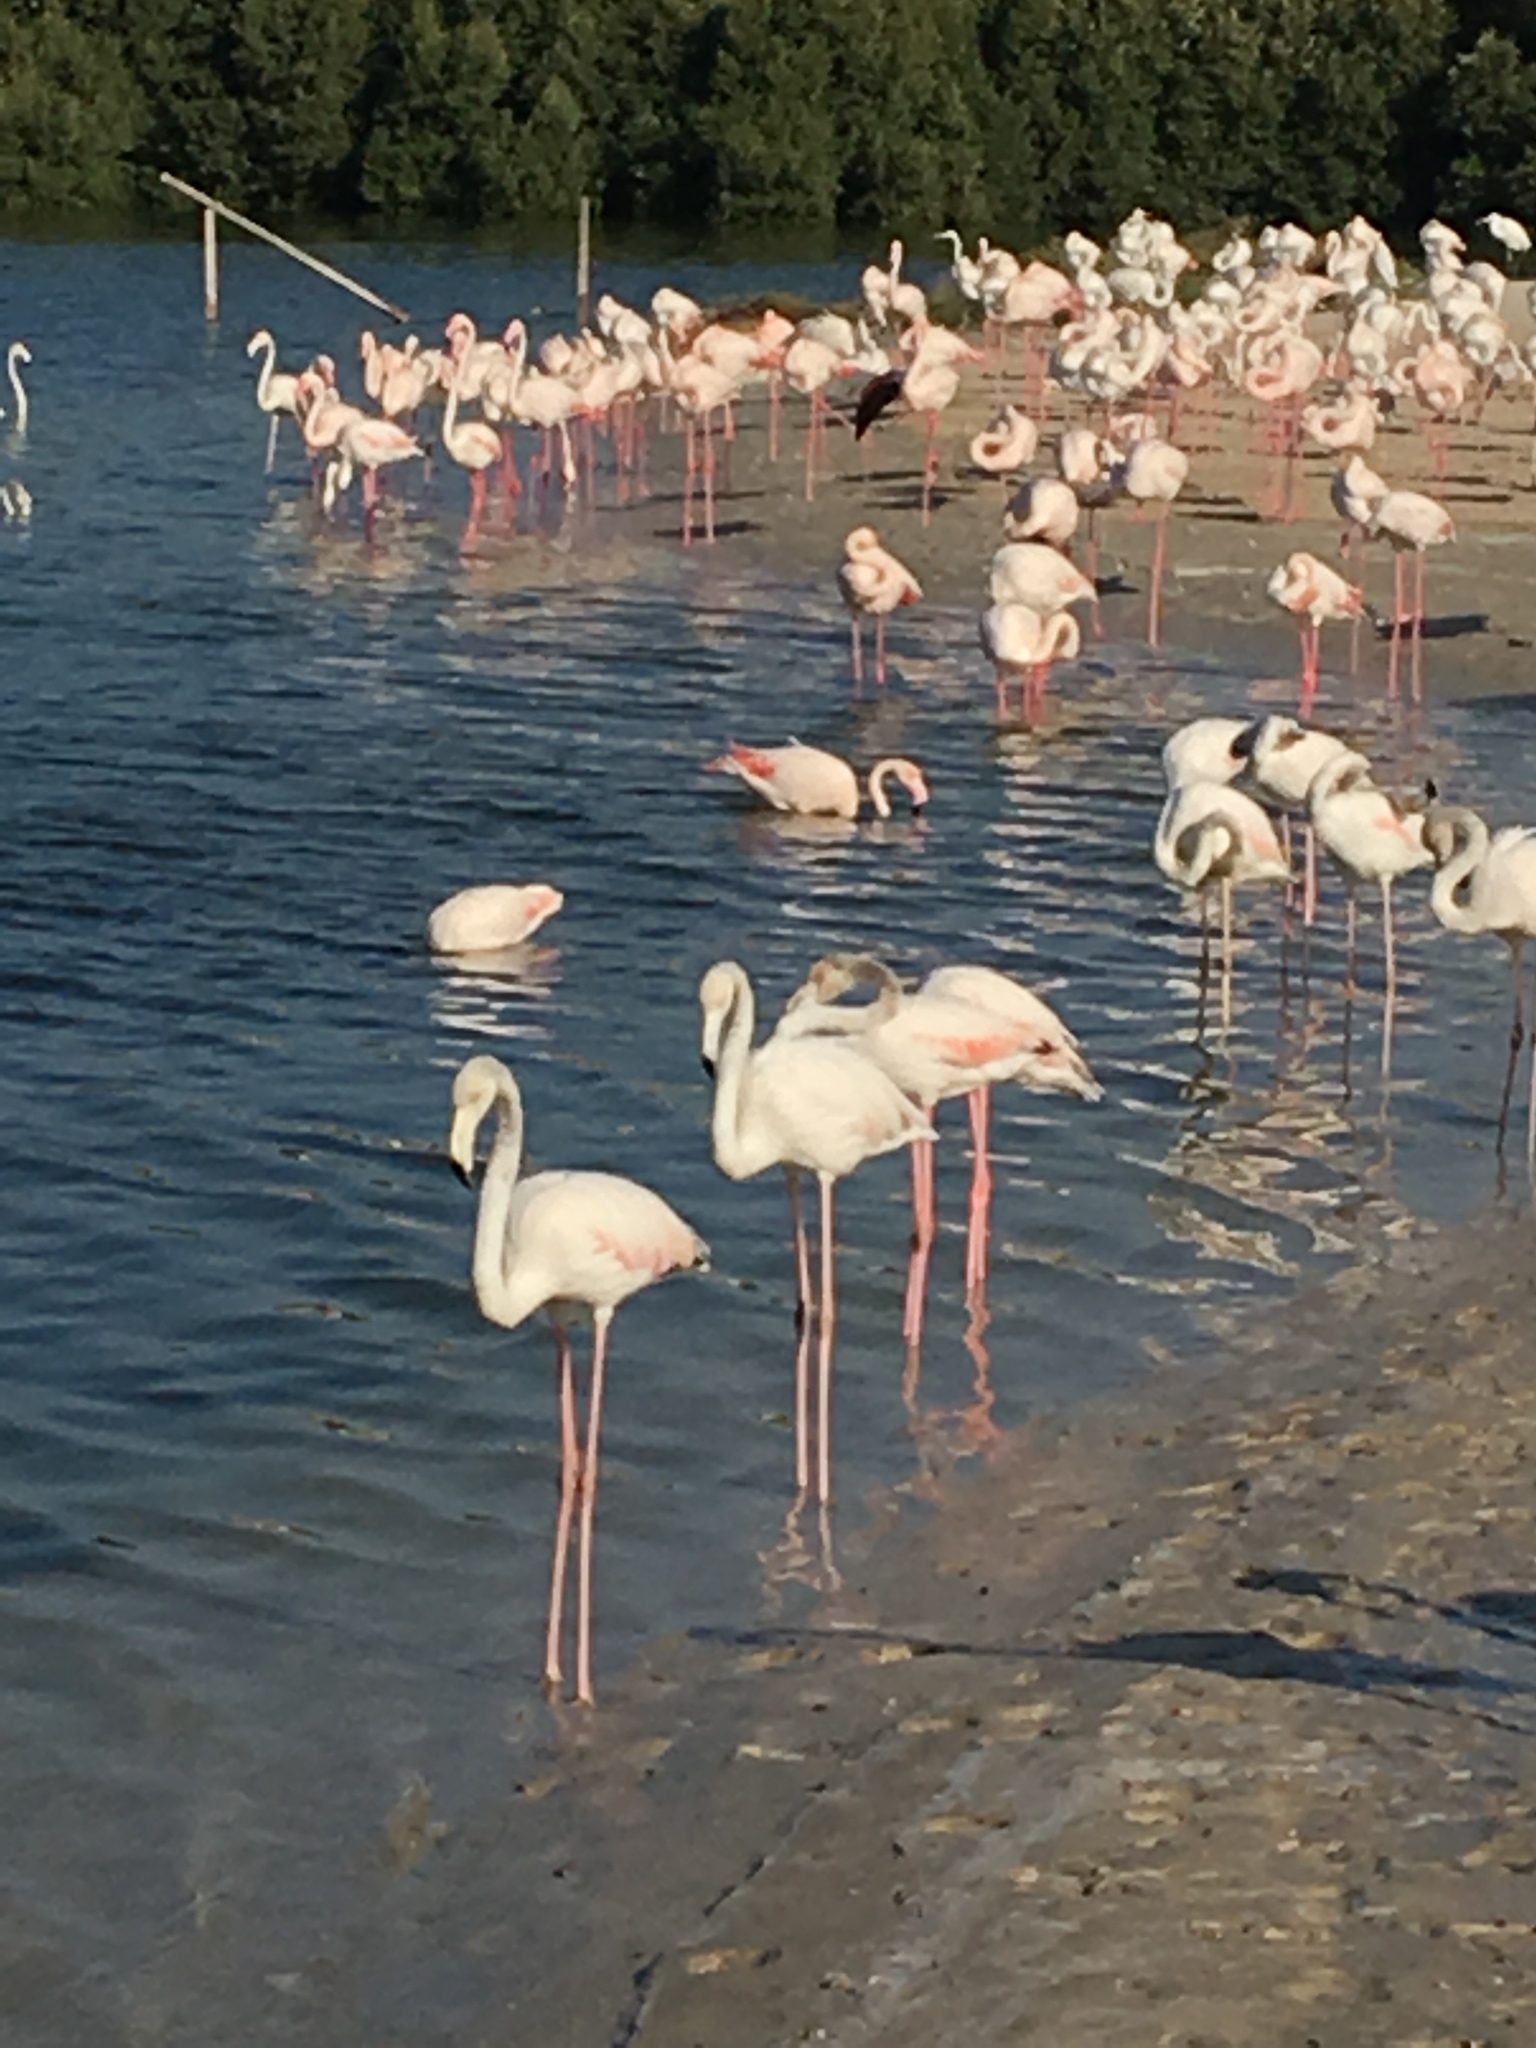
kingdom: Animalia
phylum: Chordata
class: Aves
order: Phoenicopteriformes
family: Phoenicopteridae
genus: Phoenicopterus
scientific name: Phoenicopterus roseus
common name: Greater flamingo
